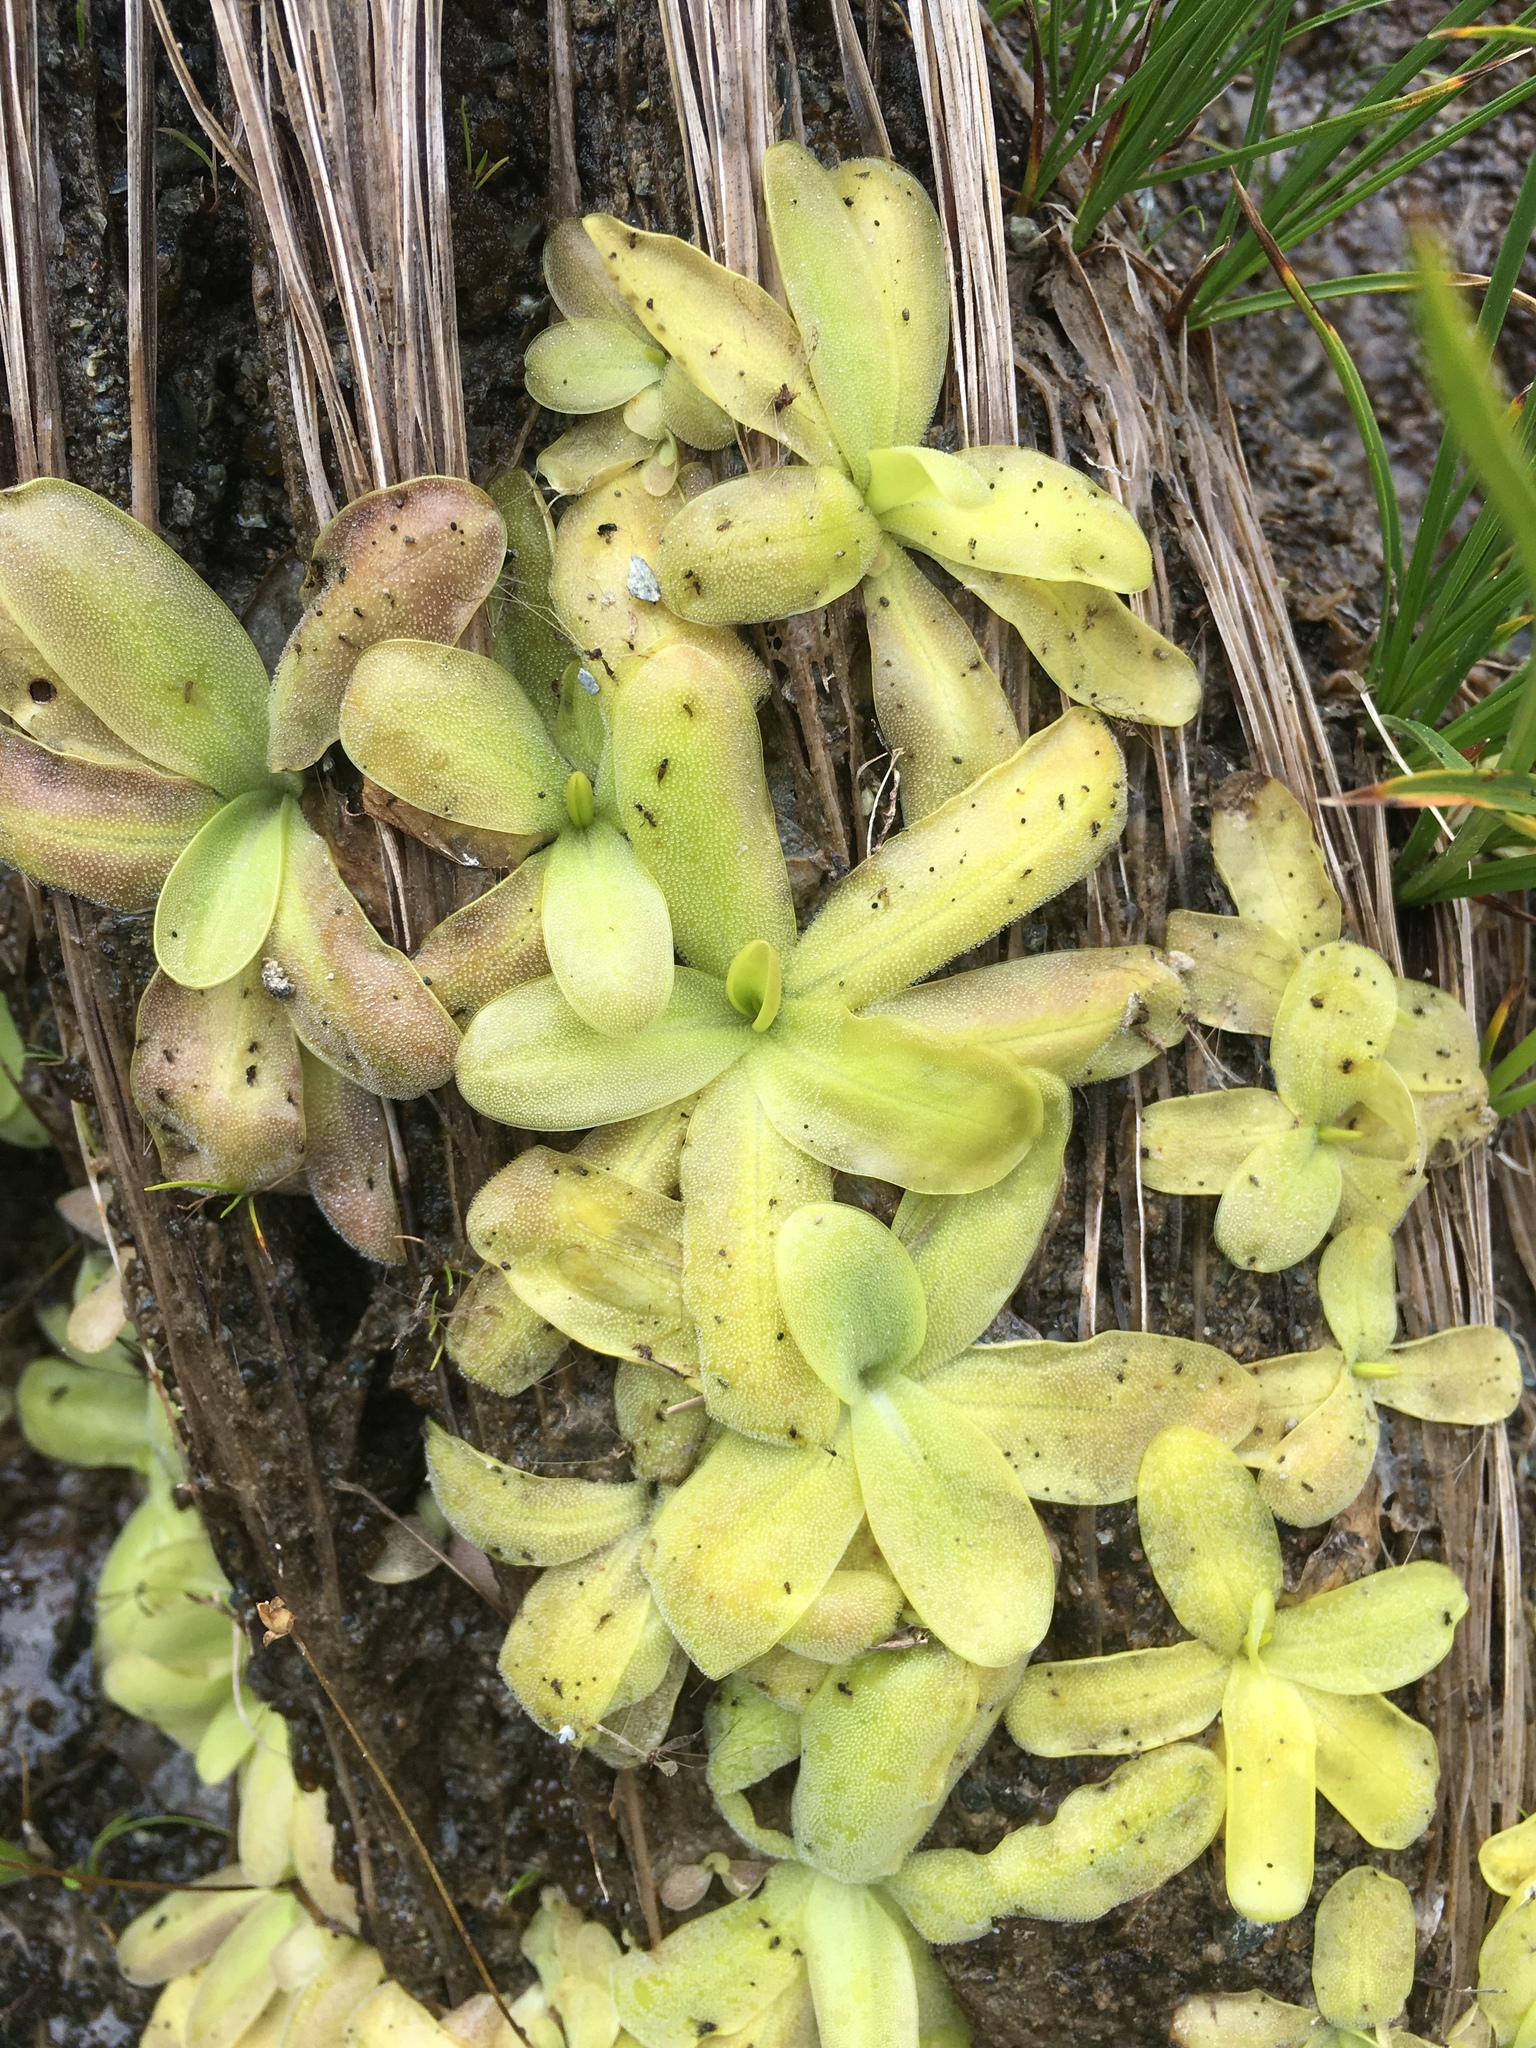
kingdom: Plantae
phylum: Tracheophyta
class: Magnoliopsida
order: Lamiales
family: Lentibulariaceae
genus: Pinguicula
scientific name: Pinguicula macroceras
